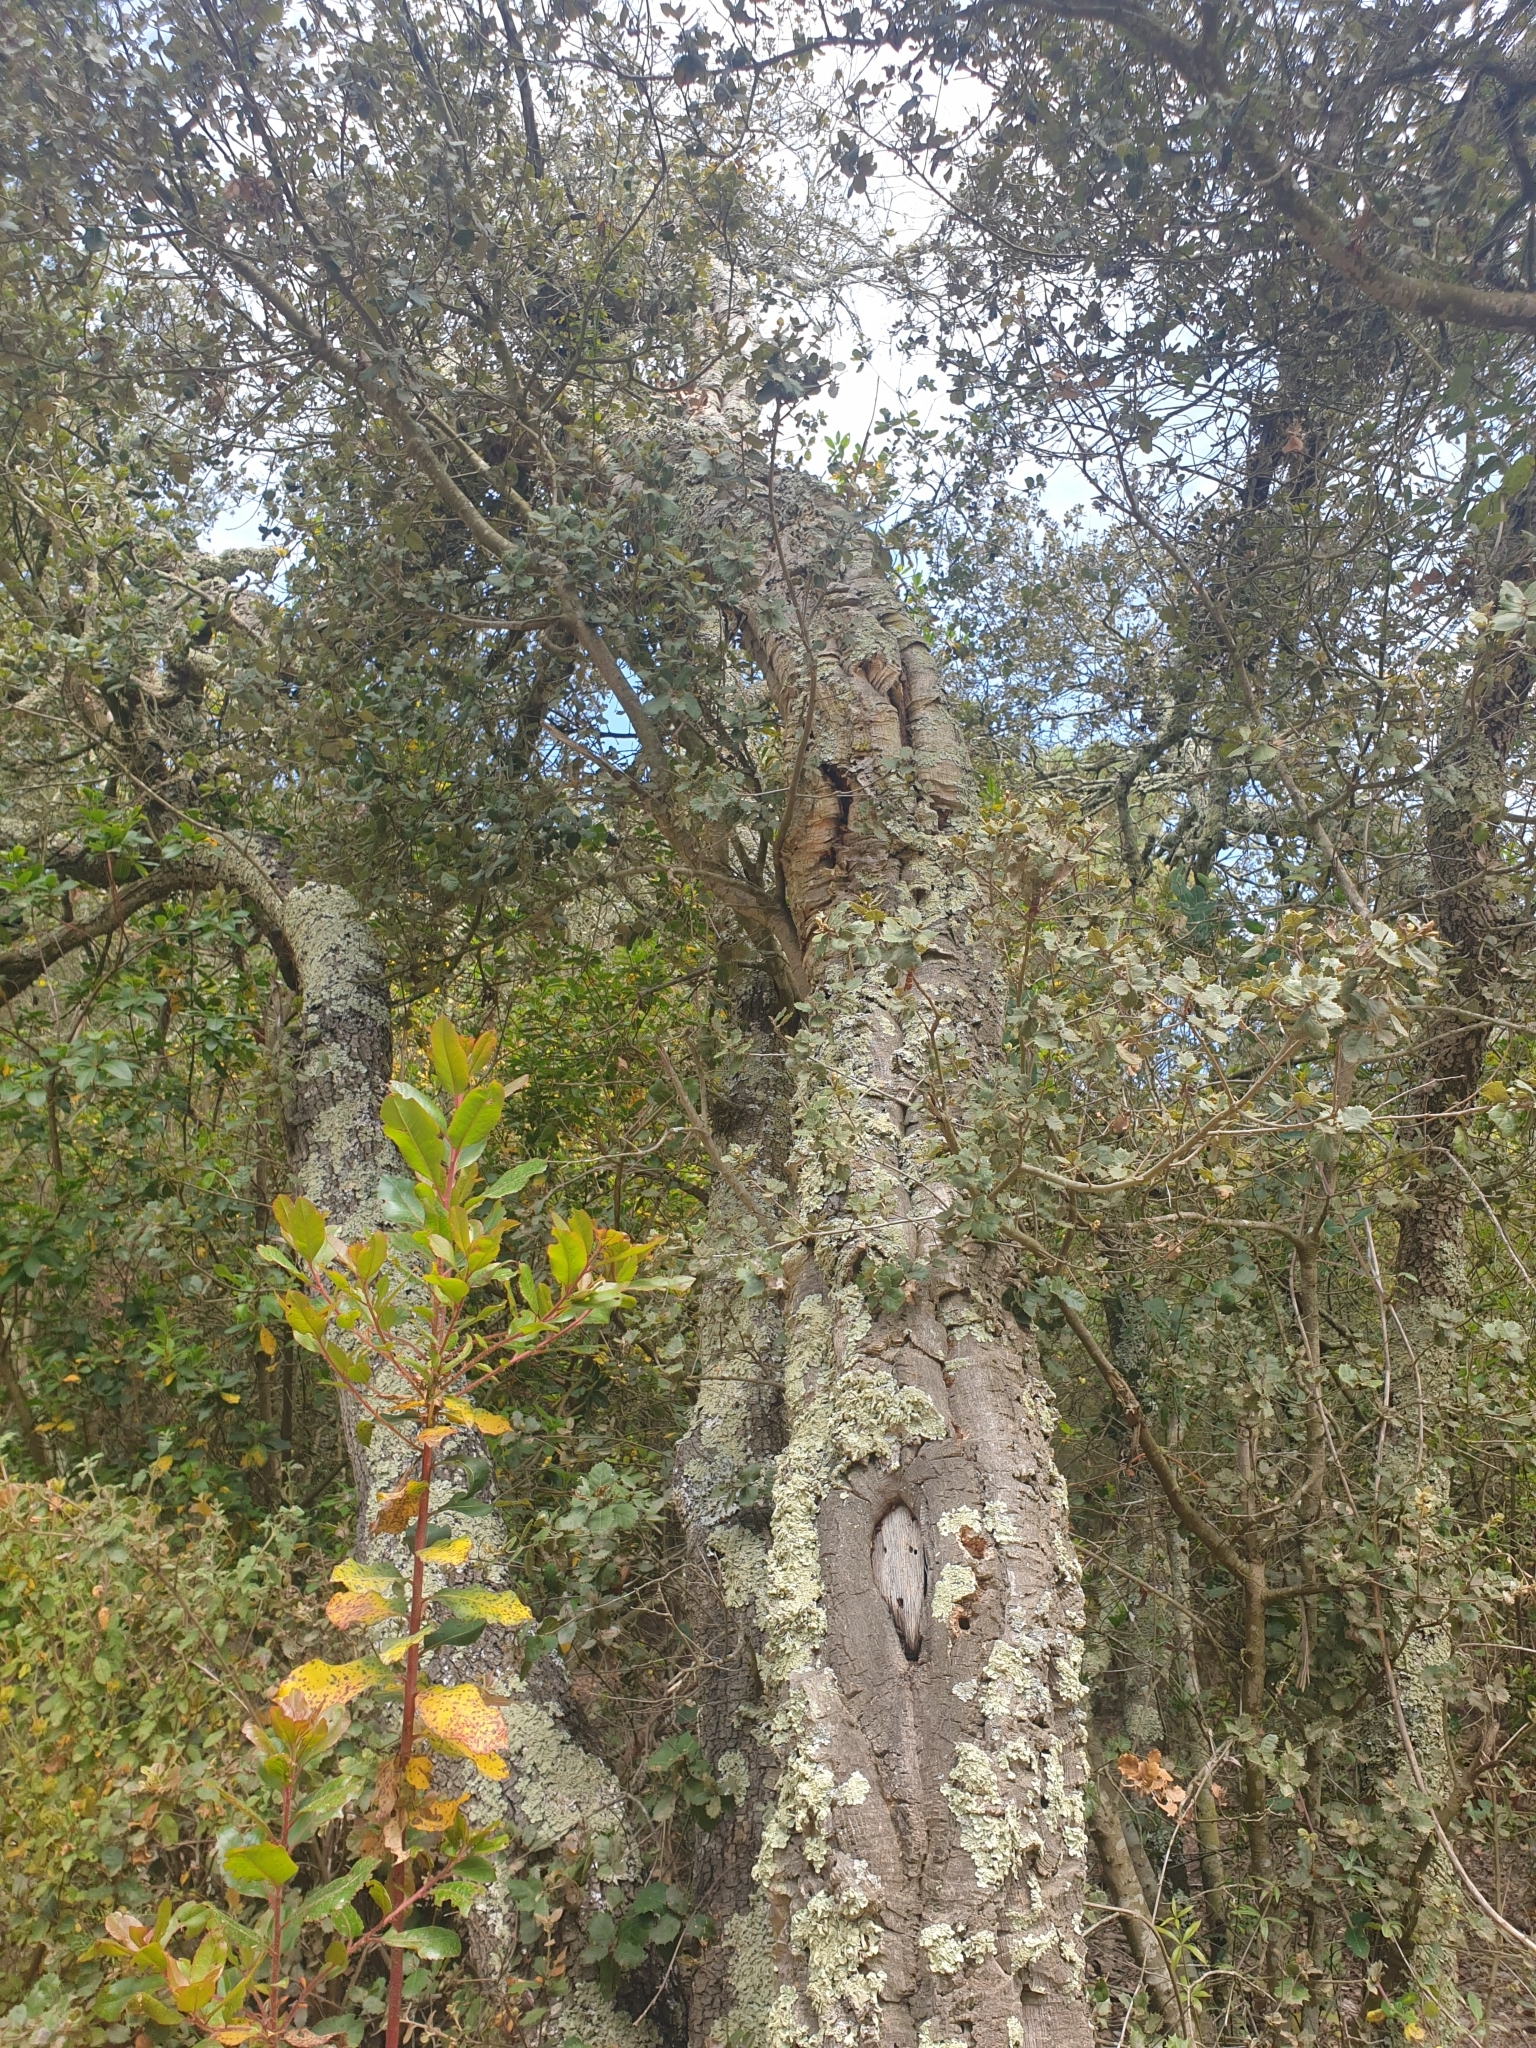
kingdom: Plantae
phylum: Tracheophyta
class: Magnoliopsida
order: Fagales
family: Fagaceae
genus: Quercus
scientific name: Quercus suber
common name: Cork oak
